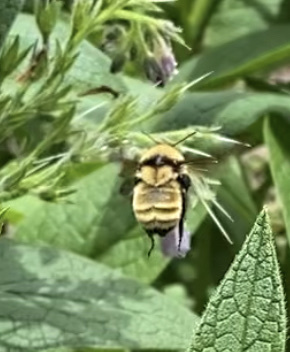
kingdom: Animalia
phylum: Arthropoda
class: Insecta
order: Hymenoptera
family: Apidae
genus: Bombus
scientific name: Bombus fervidus
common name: Yellow bumble bee
